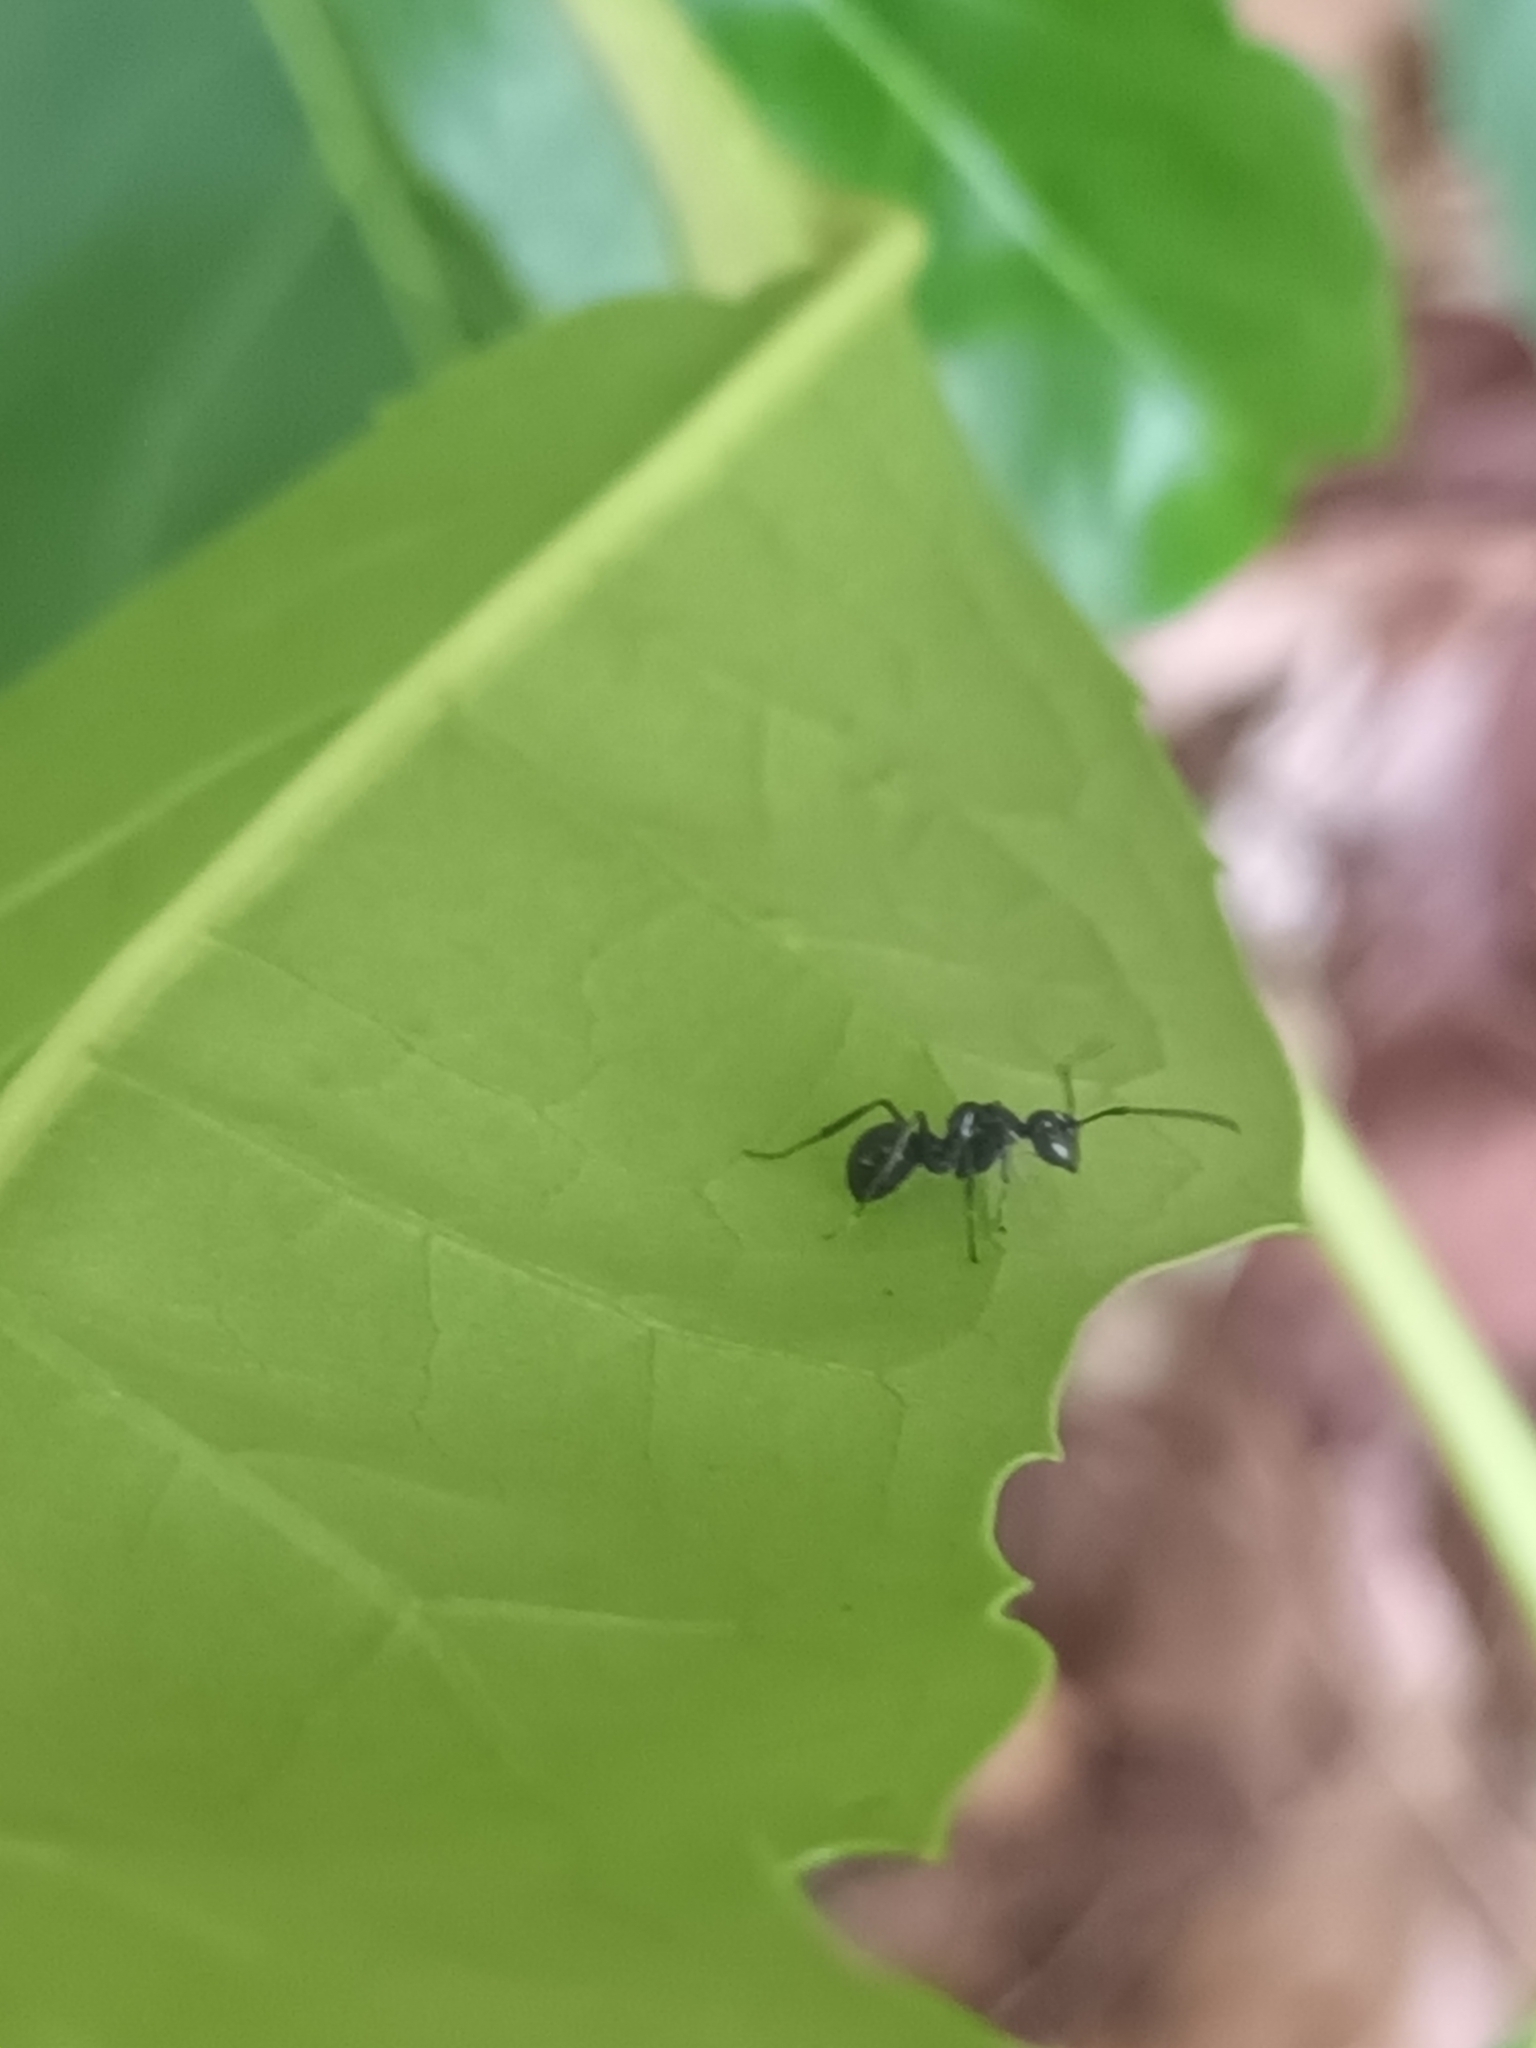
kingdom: Animalia
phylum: Arthropoda
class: Insecta
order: Hymenoptera
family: Formicidae
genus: Polyrhachis
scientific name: Polyrhachis scissa
